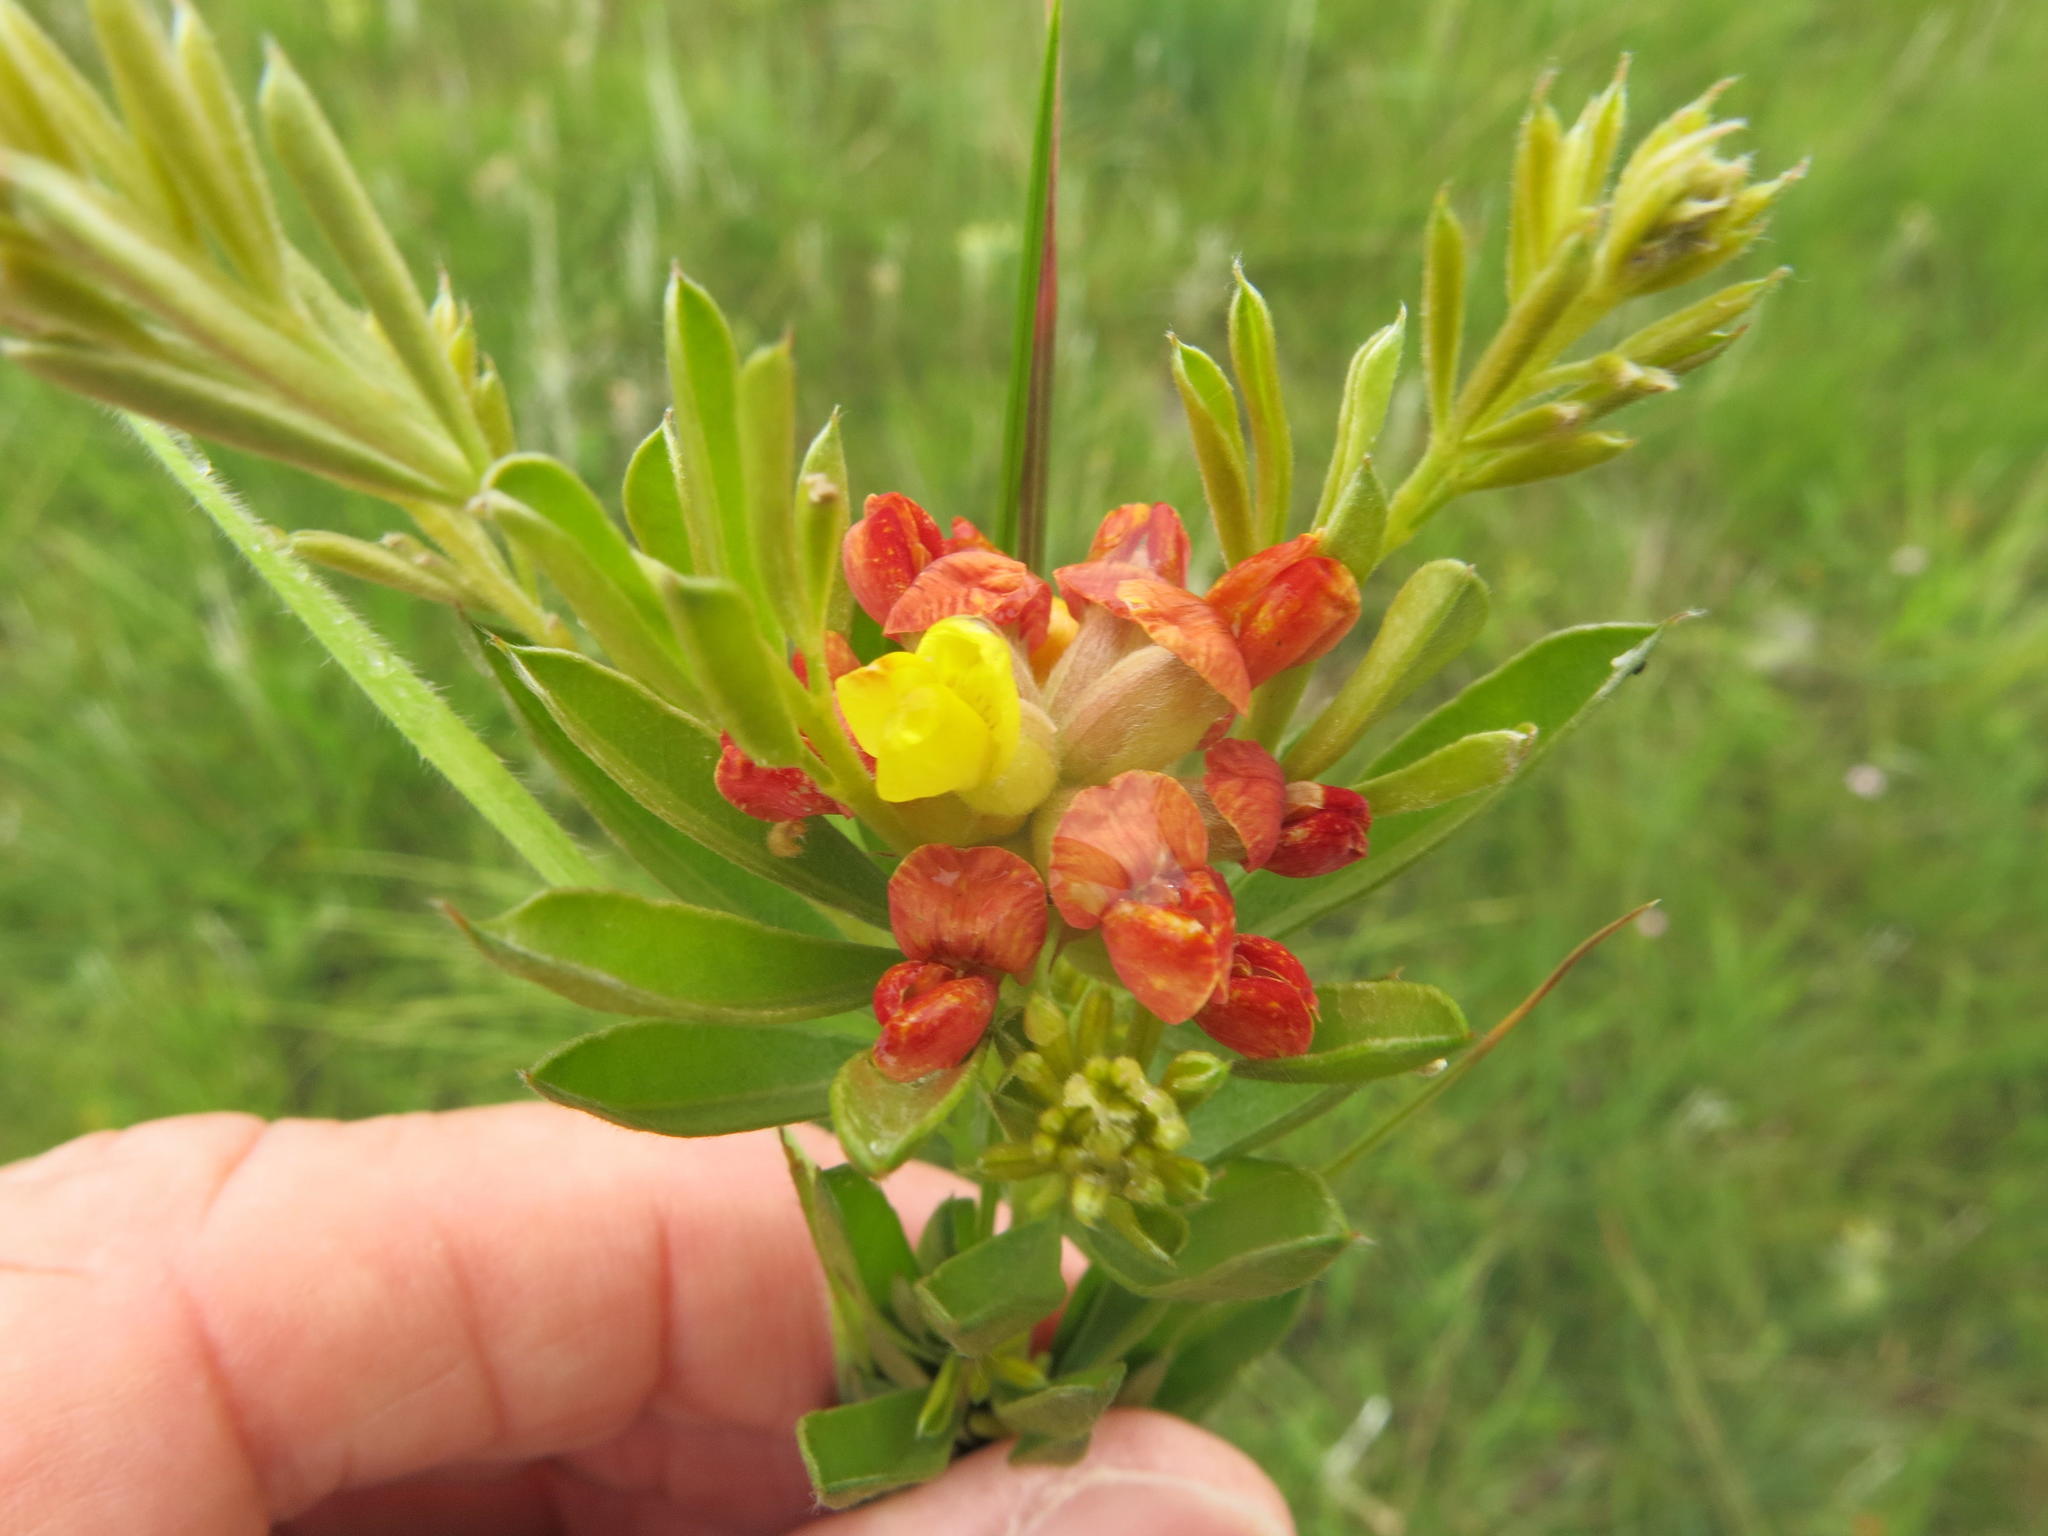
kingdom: Plantae
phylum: Tracheophyta
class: Magnoliopsida
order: Fabales
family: Fabaceae
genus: Pearsonia
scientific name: Pearsonia sessilifolia
